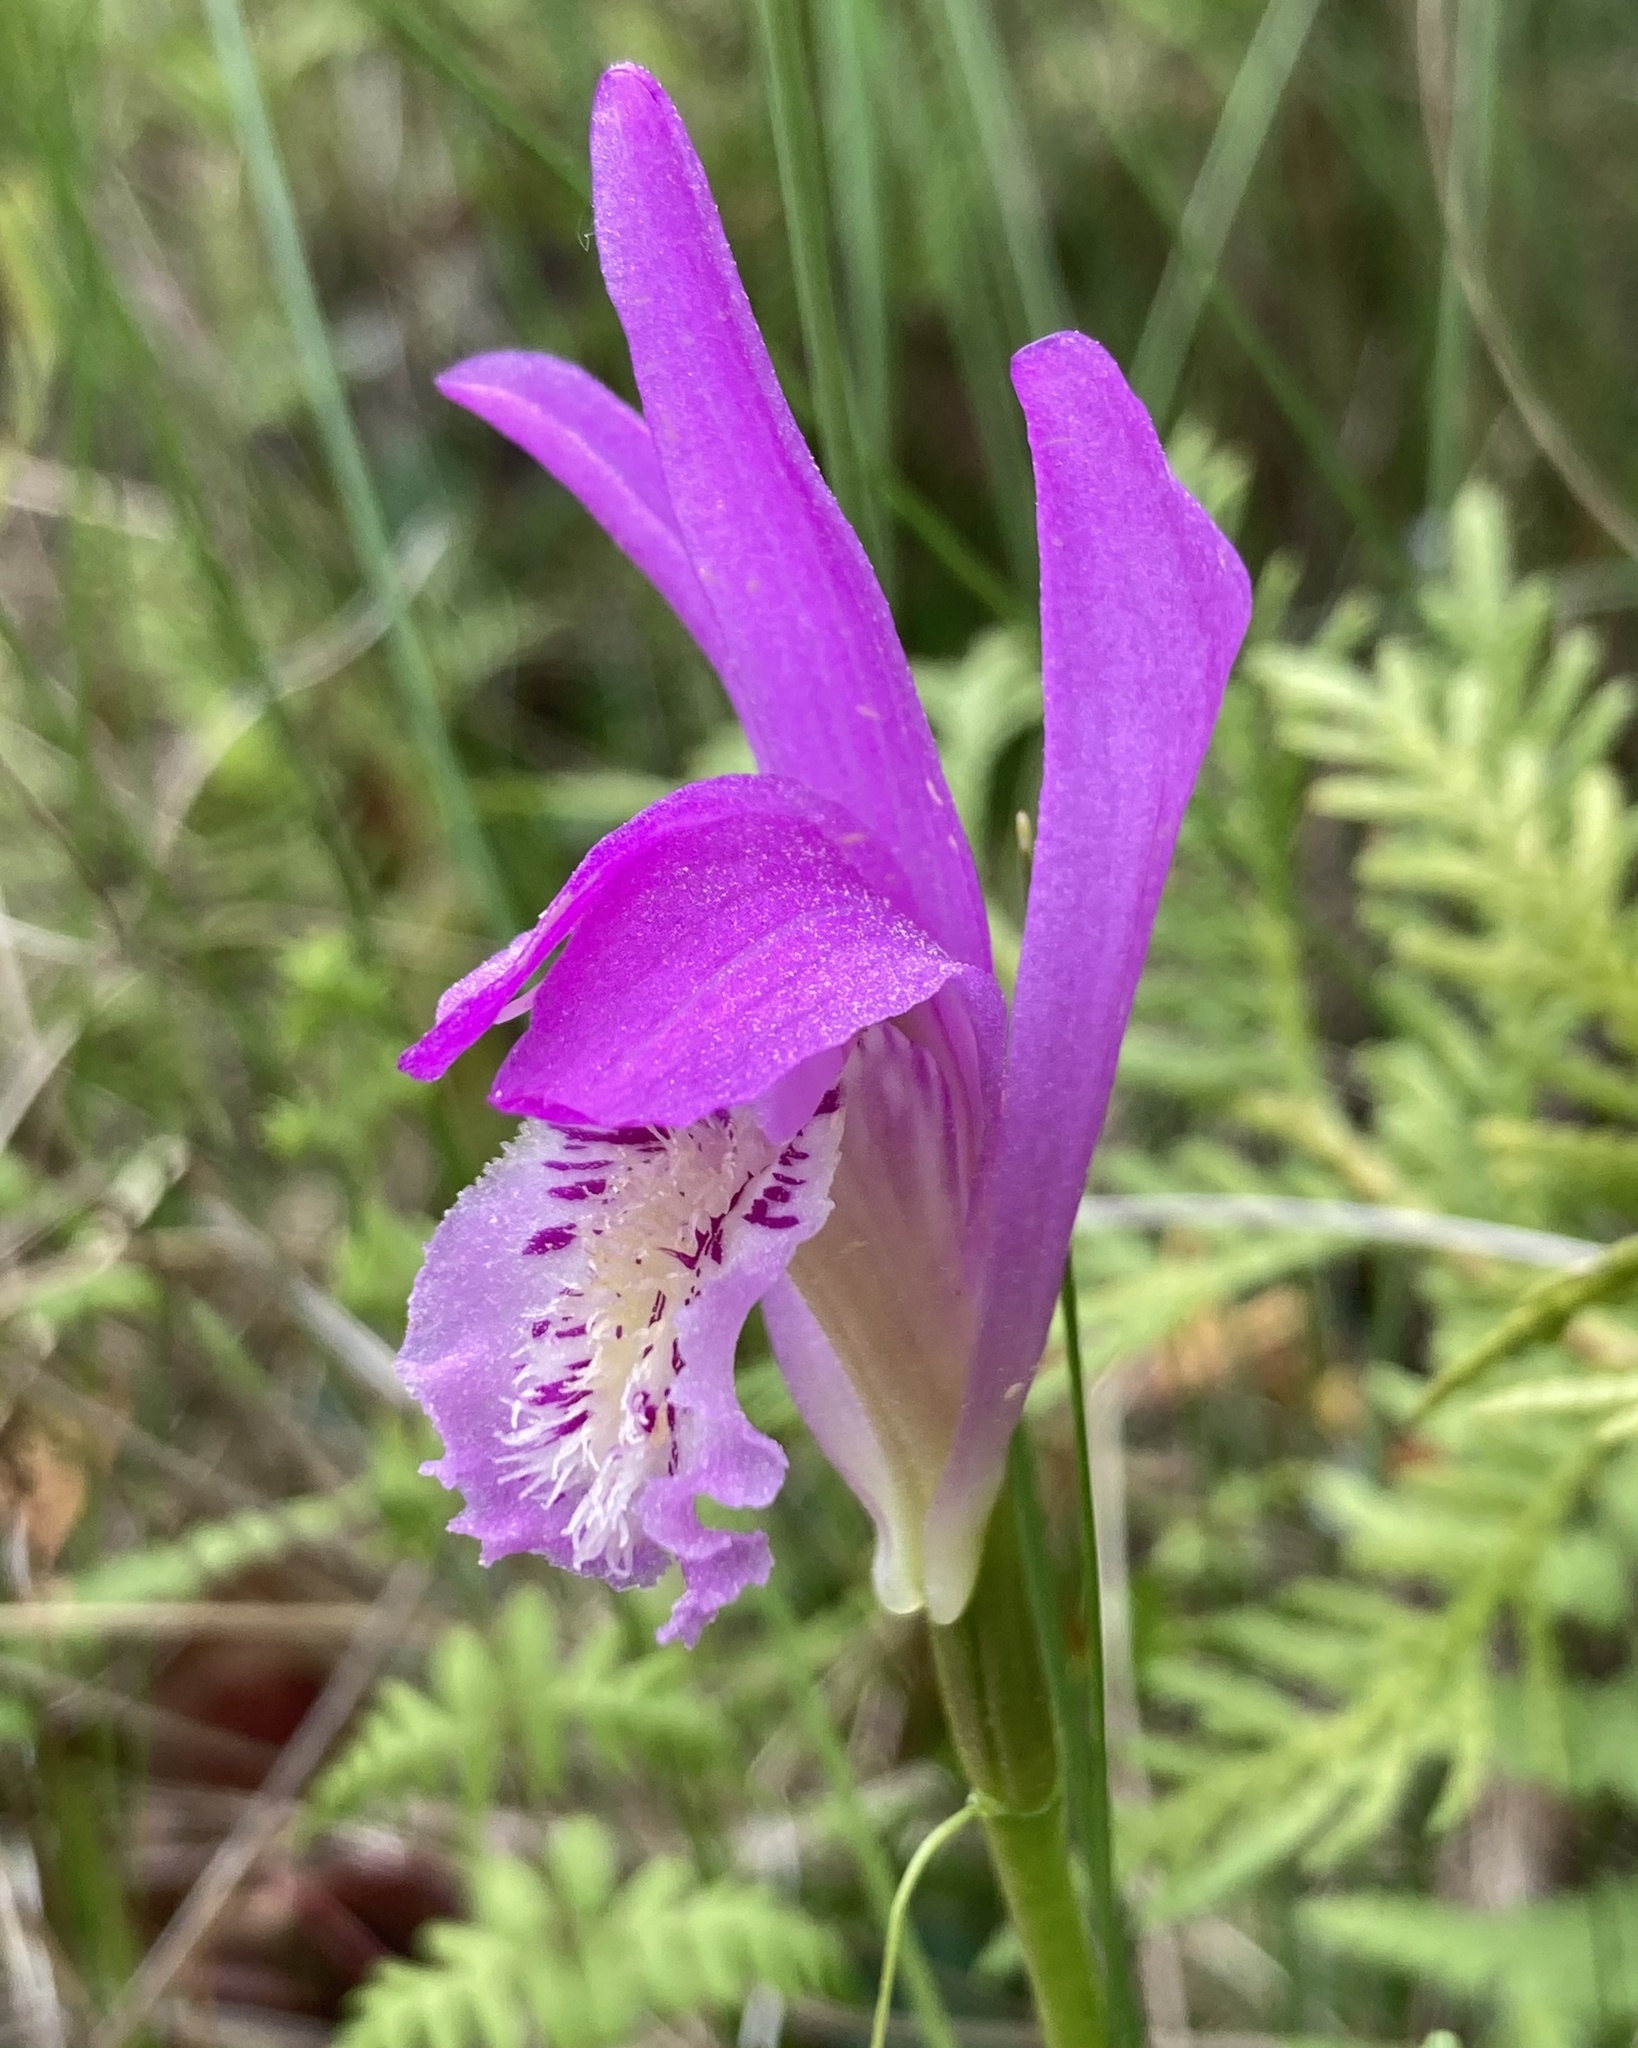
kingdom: Plantae
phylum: Tracheophyta
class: Liliopsida
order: Asparagales
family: Orchidaceae
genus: Arethusa
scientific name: Arethusa bulbosa
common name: Arethusa
